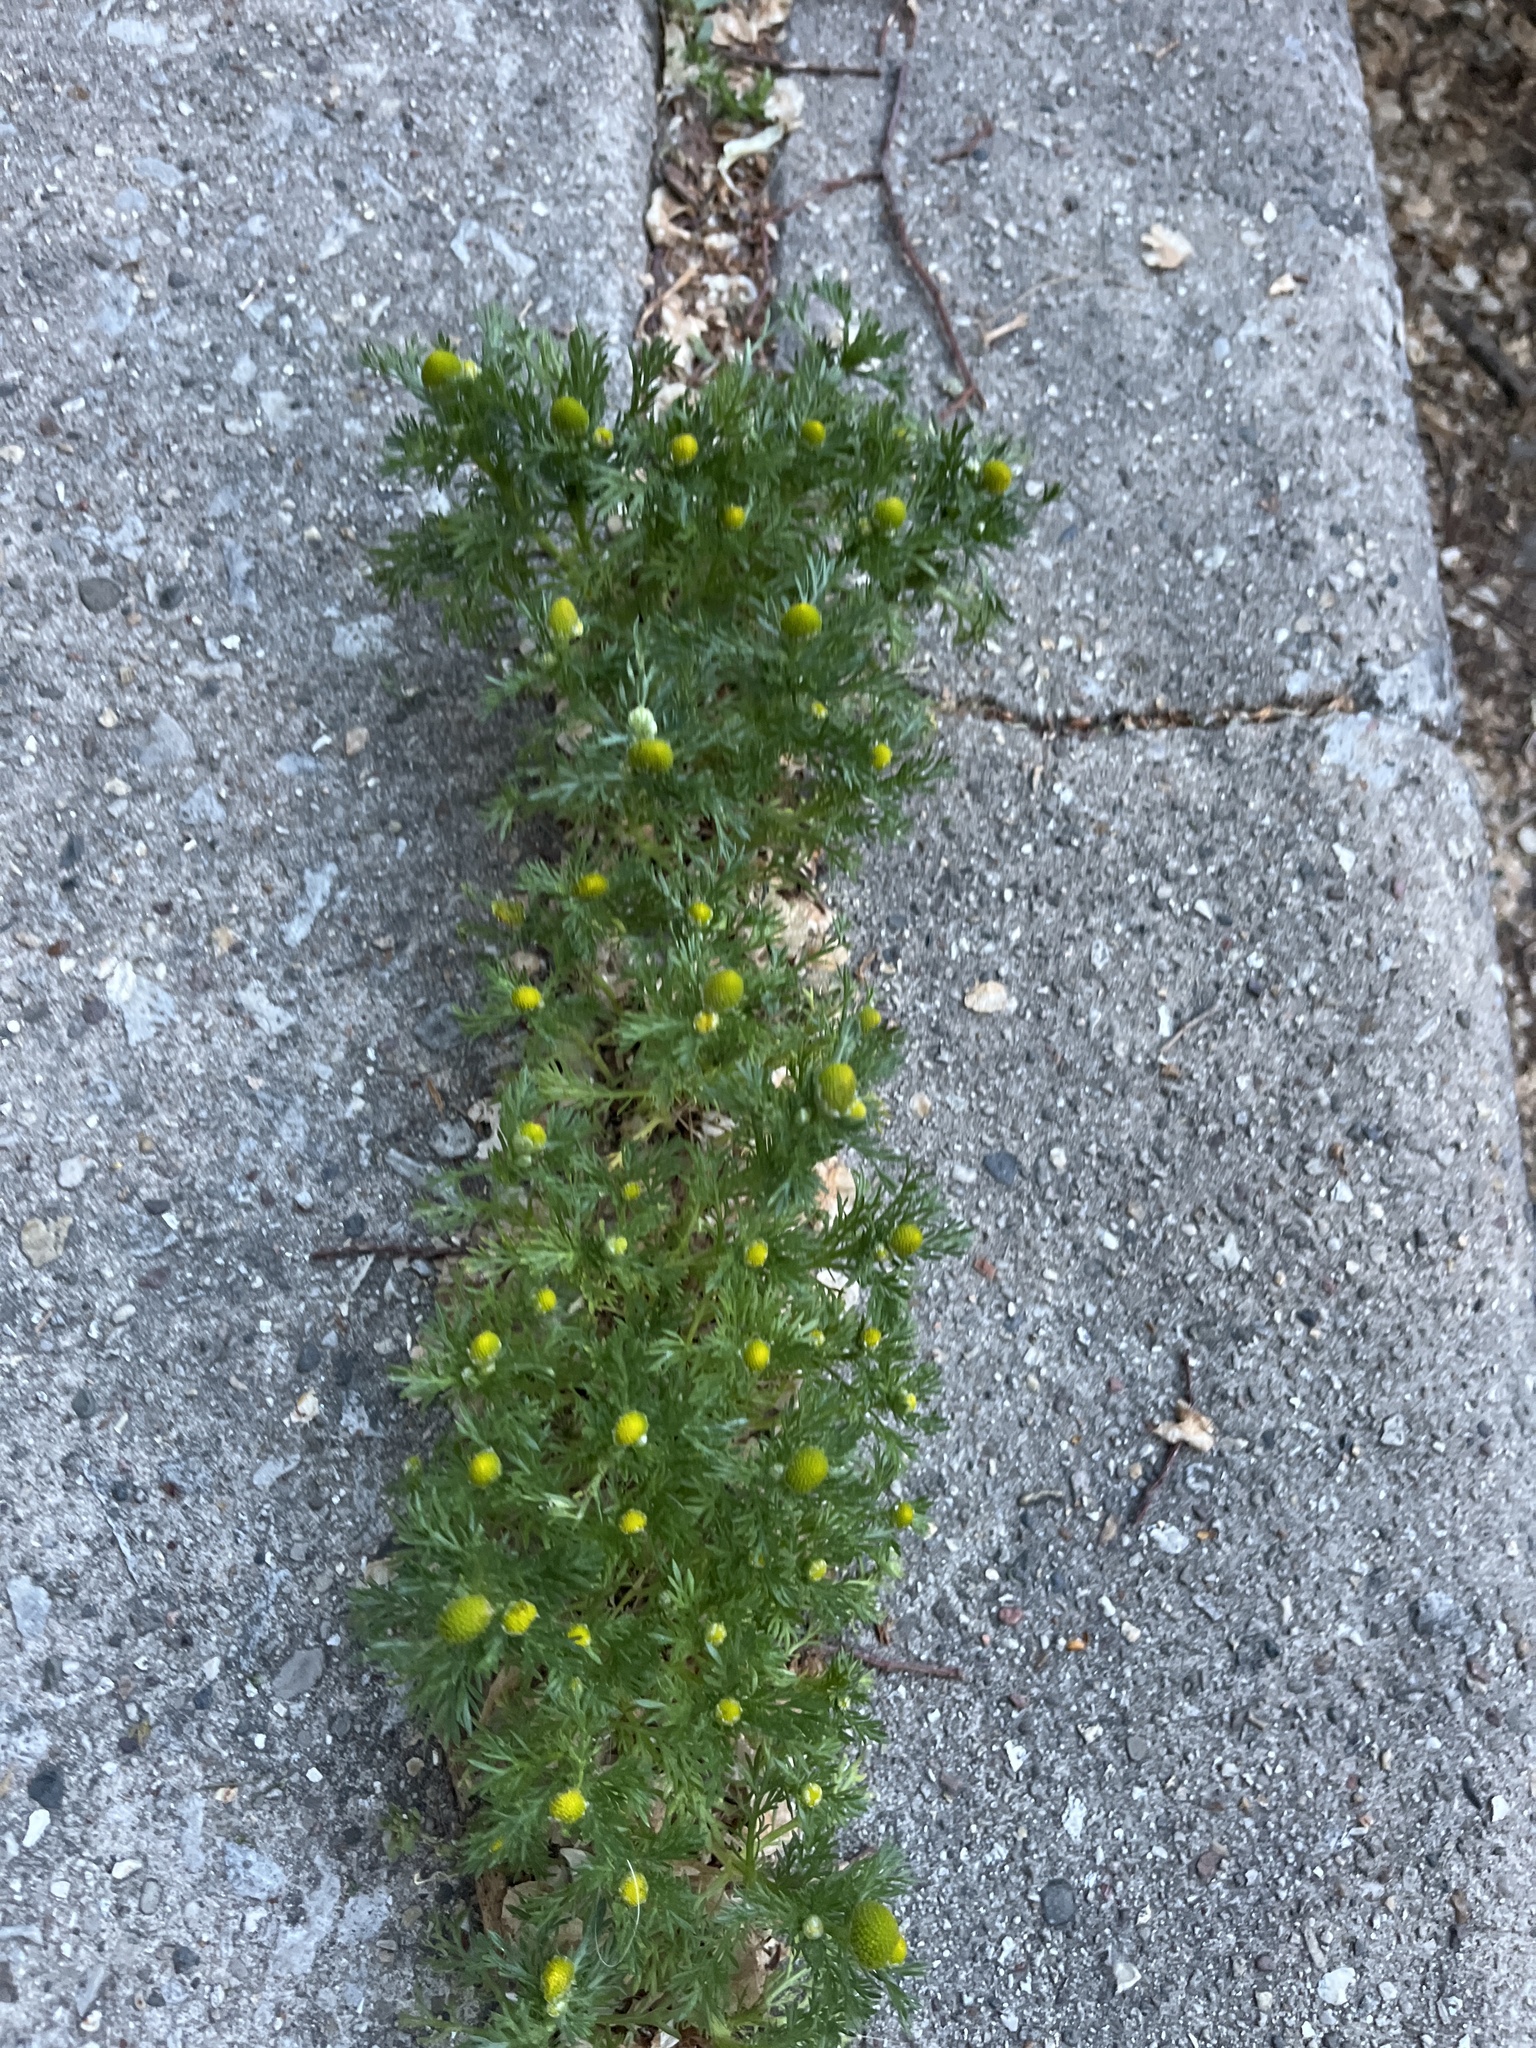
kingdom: Plantae
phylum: Tracheophyta
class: Magnoliopsida
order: Asterales
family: Asteraceae
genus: Matricaria
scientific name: Matricaria discoidea
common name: Disc mayweed
